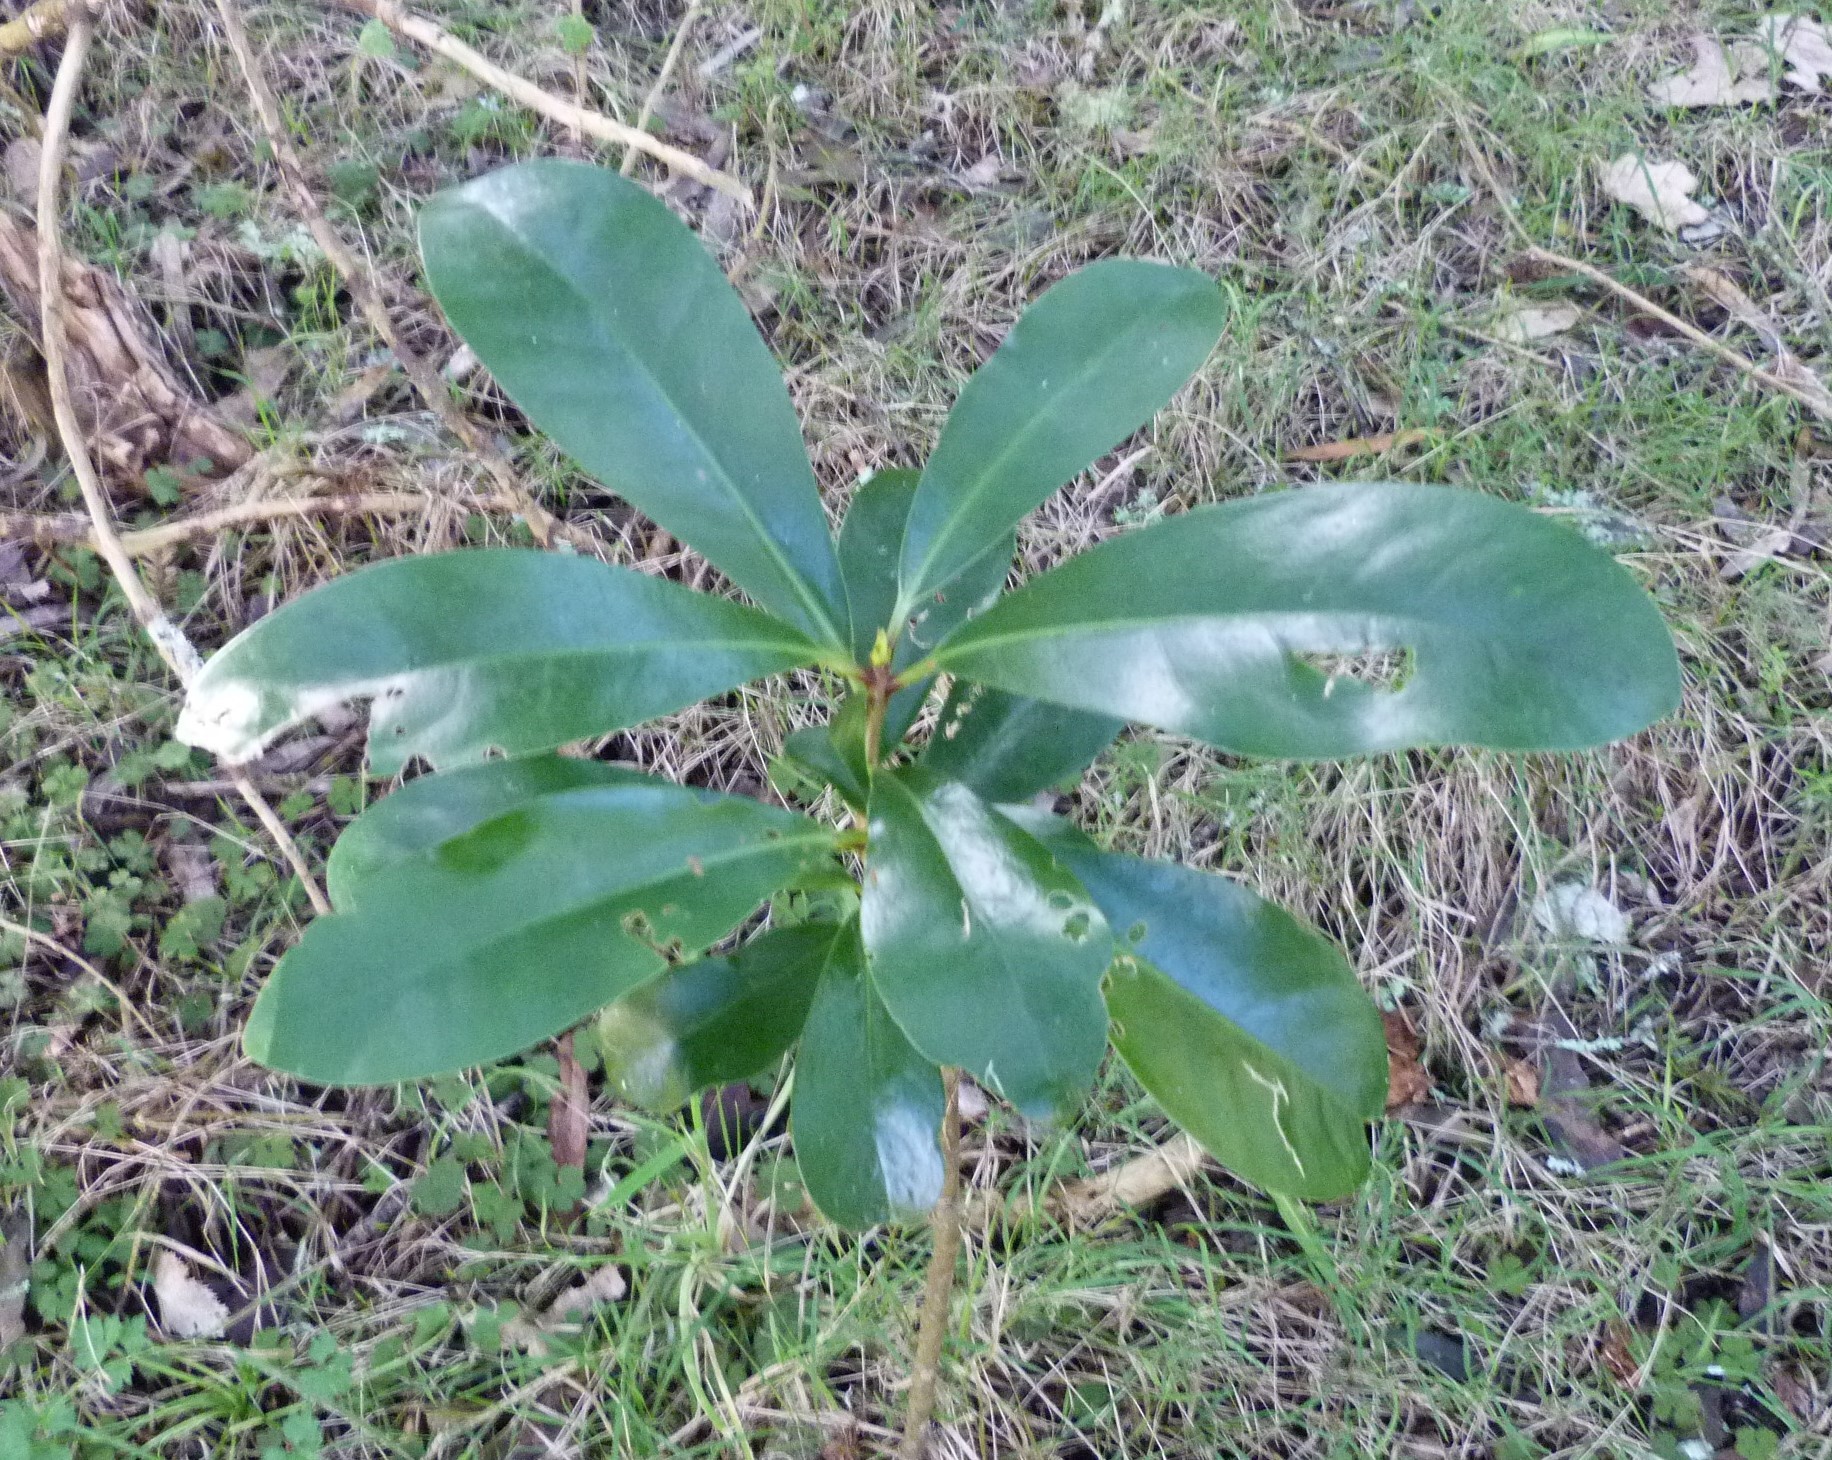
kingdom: Plantae
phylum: Tracheophyta
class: Magnoliopsida
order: Cucurbitales
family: Corynocarpaceae
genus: Corynocarpus
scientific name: Corynocarpus laevigatus
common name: New zealand laurel
